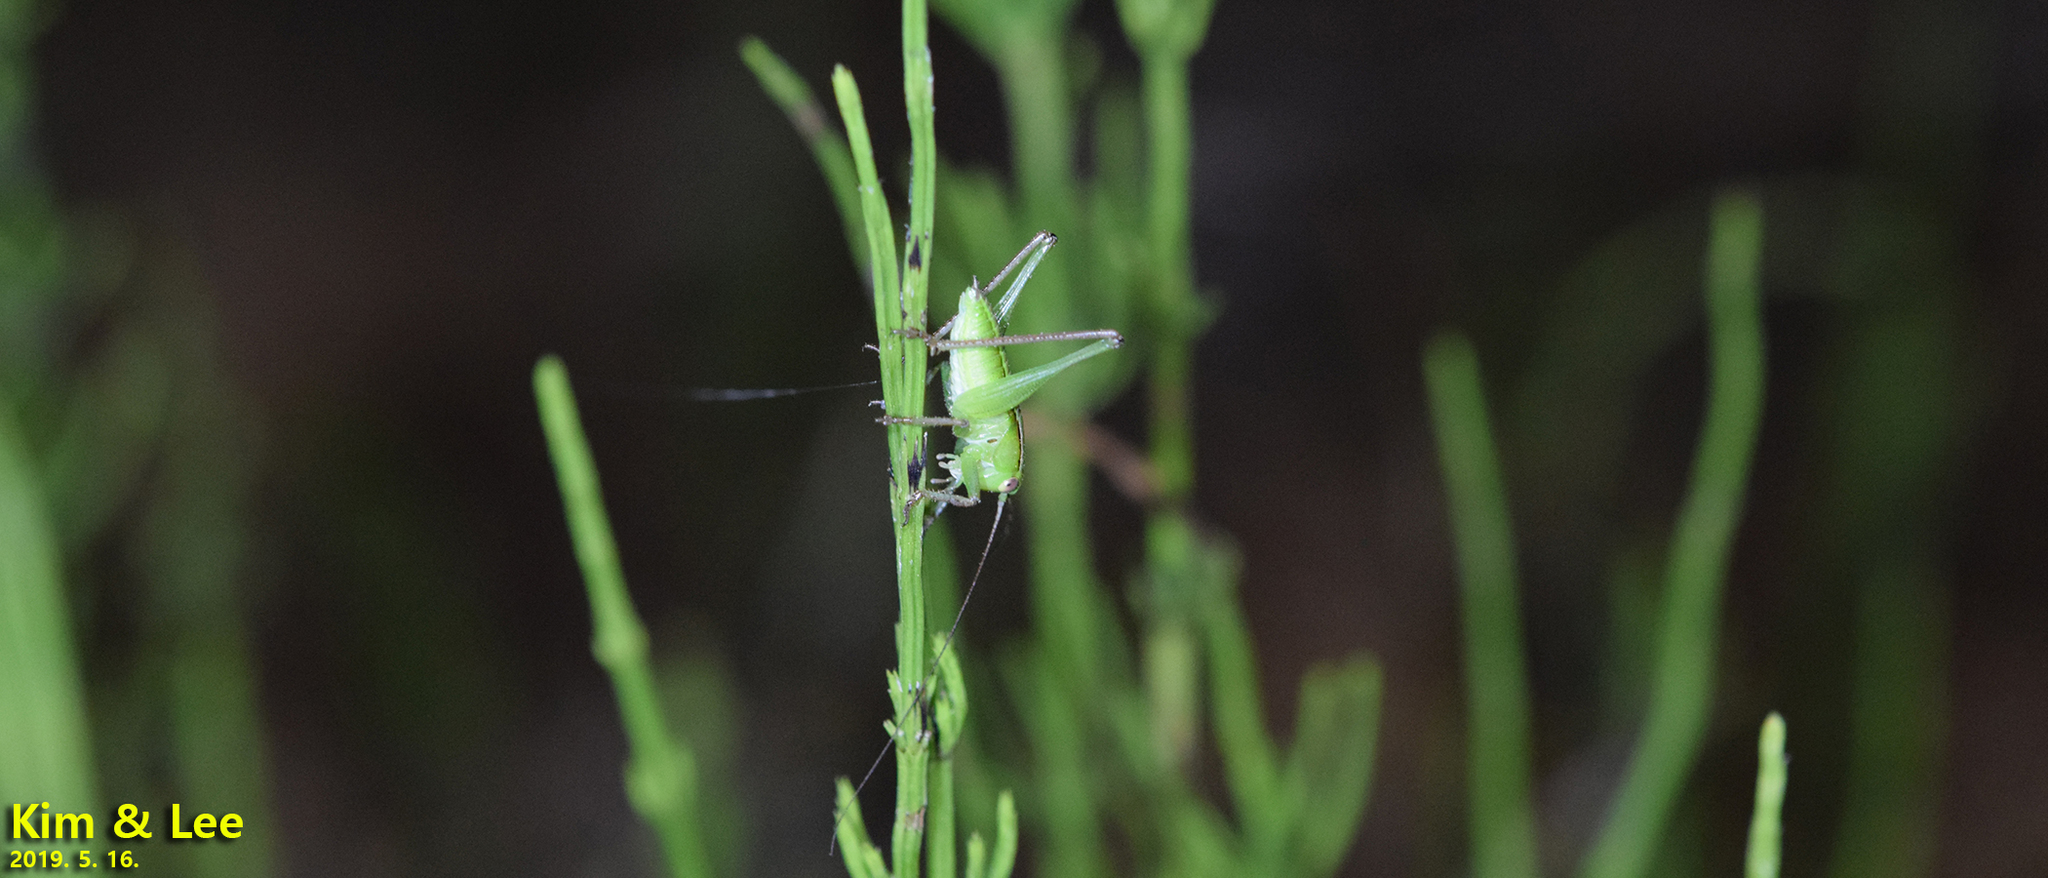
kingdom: Animalia
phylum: Arthropoda
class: Insecta
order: Orthoptera
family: Tettigoniidae
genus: Gampsocleis
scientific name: Gampsocleis ussuriensis
